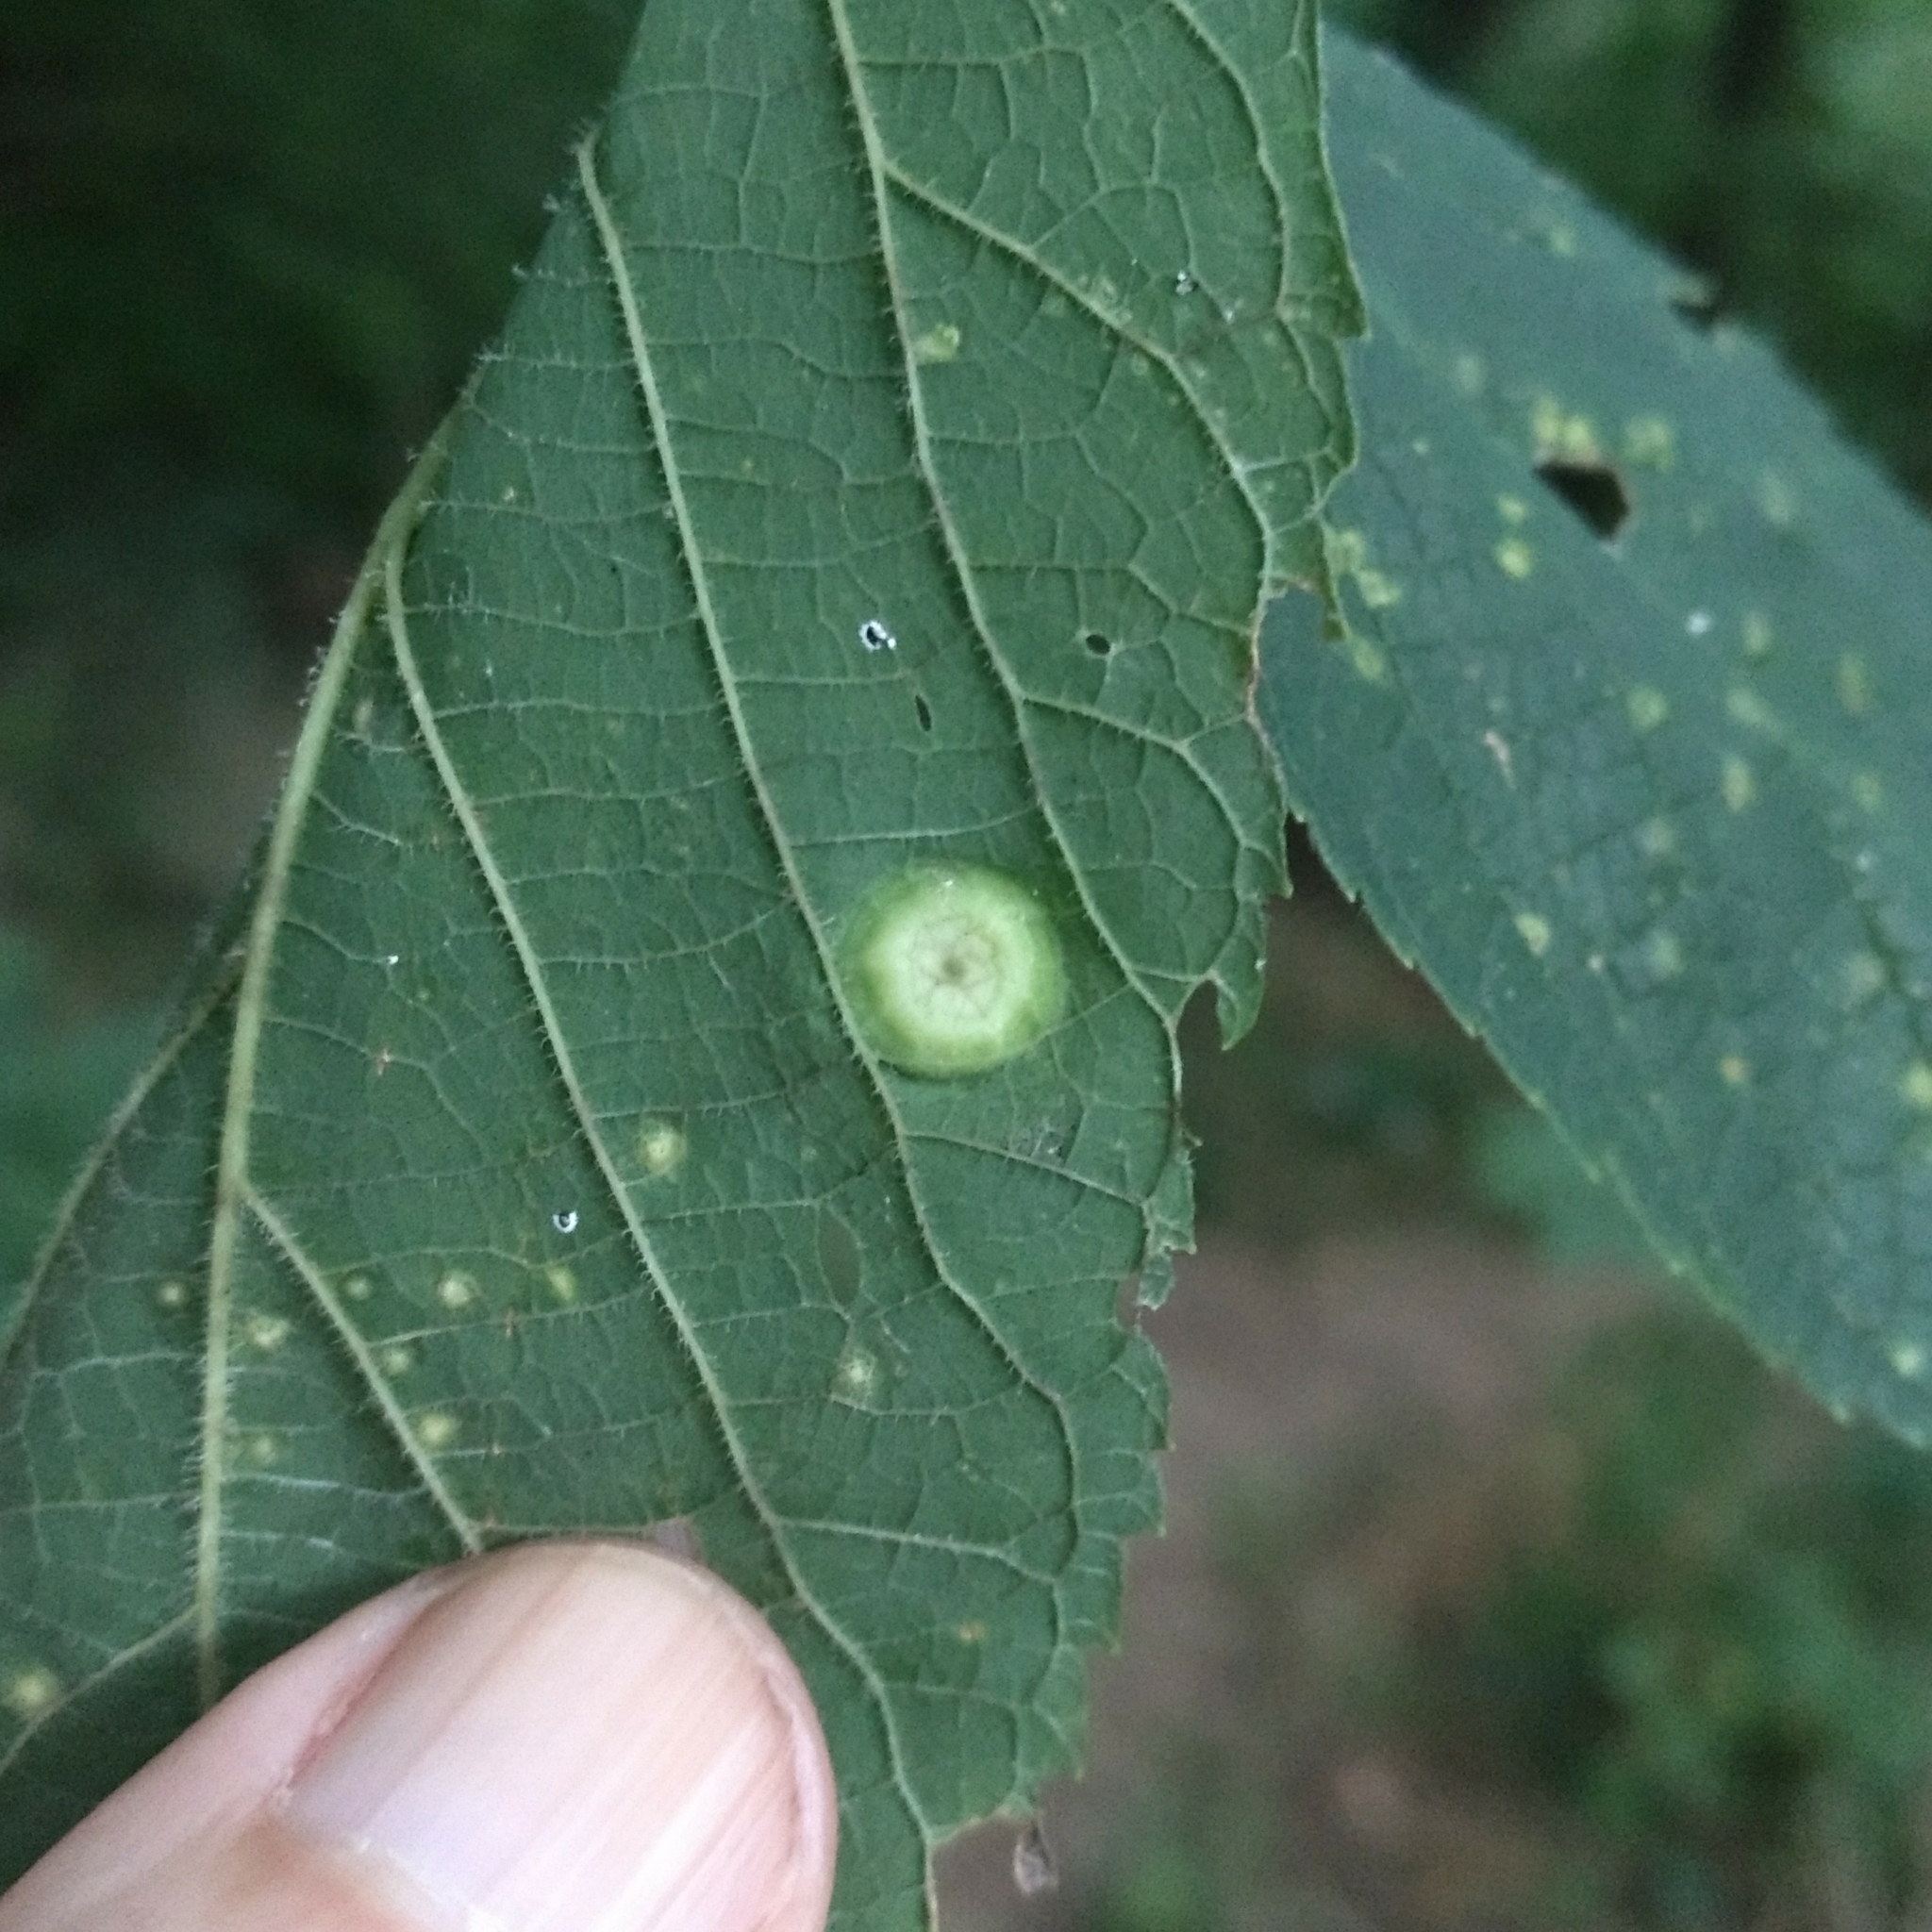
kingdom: Animalia
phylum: Arthropoda
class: Insecta
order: Hemiptera
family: Aphalaridae
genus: Pachypsylla
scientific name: Pachypsylla celtidisumbilicus
